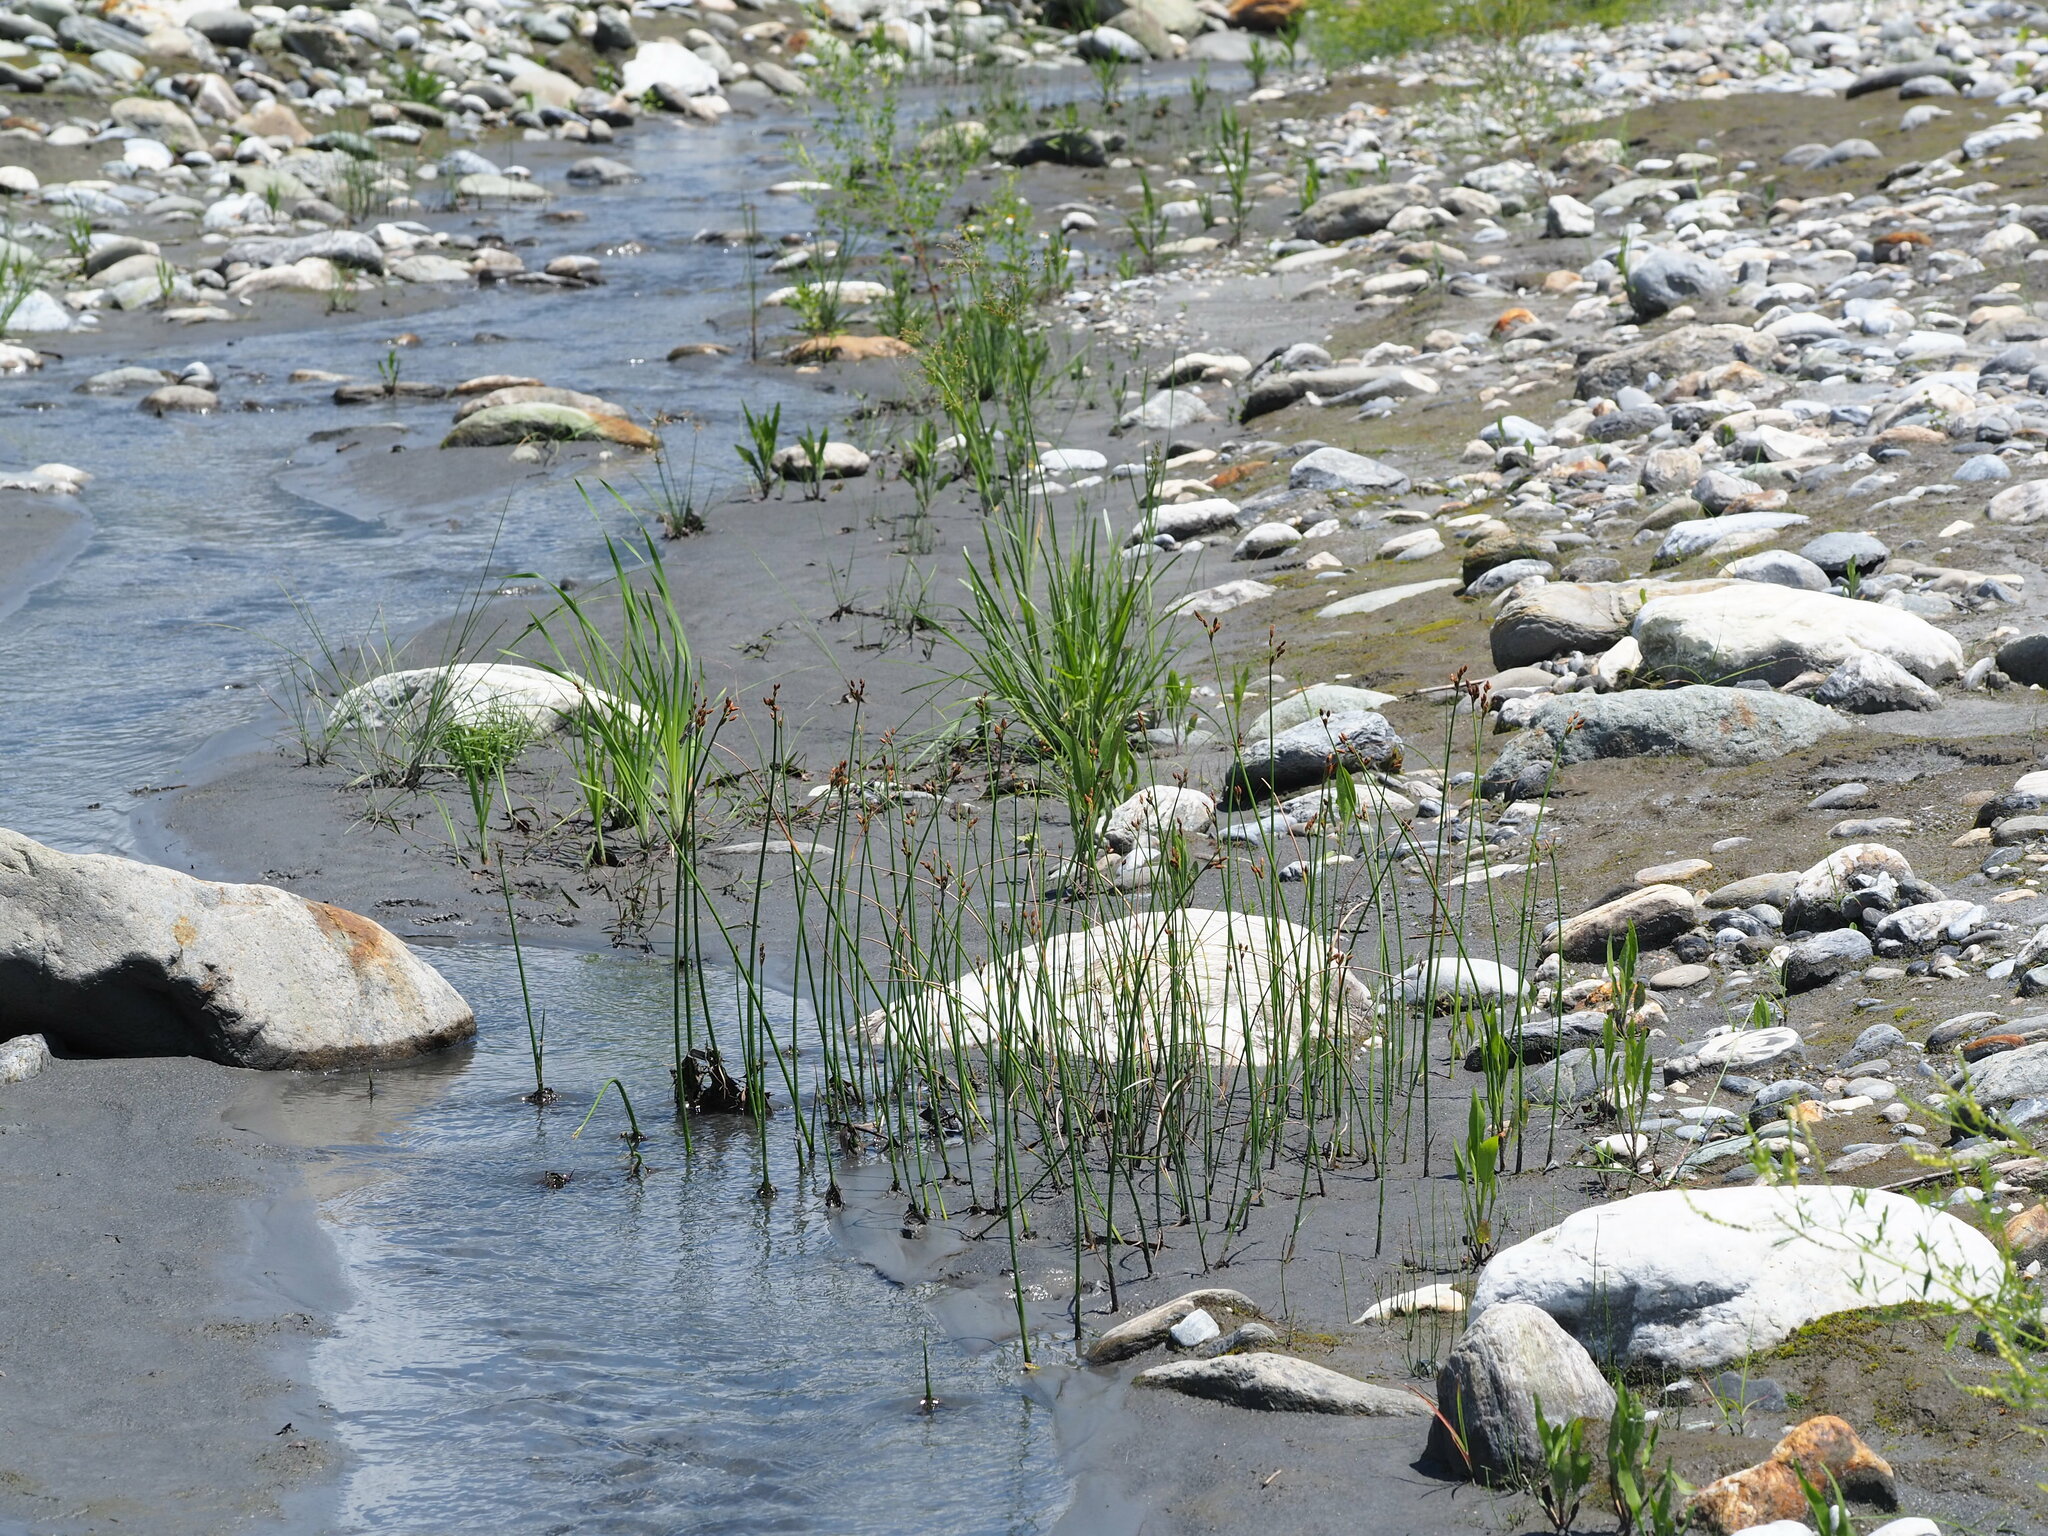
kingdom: Plantae
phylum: Tracheophyta
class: Liliopsida
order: Poales
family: Cyperaceae
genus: Schoenoplectus
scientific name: Schoenoplectus tabernaemontani
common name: Grey club-rush
